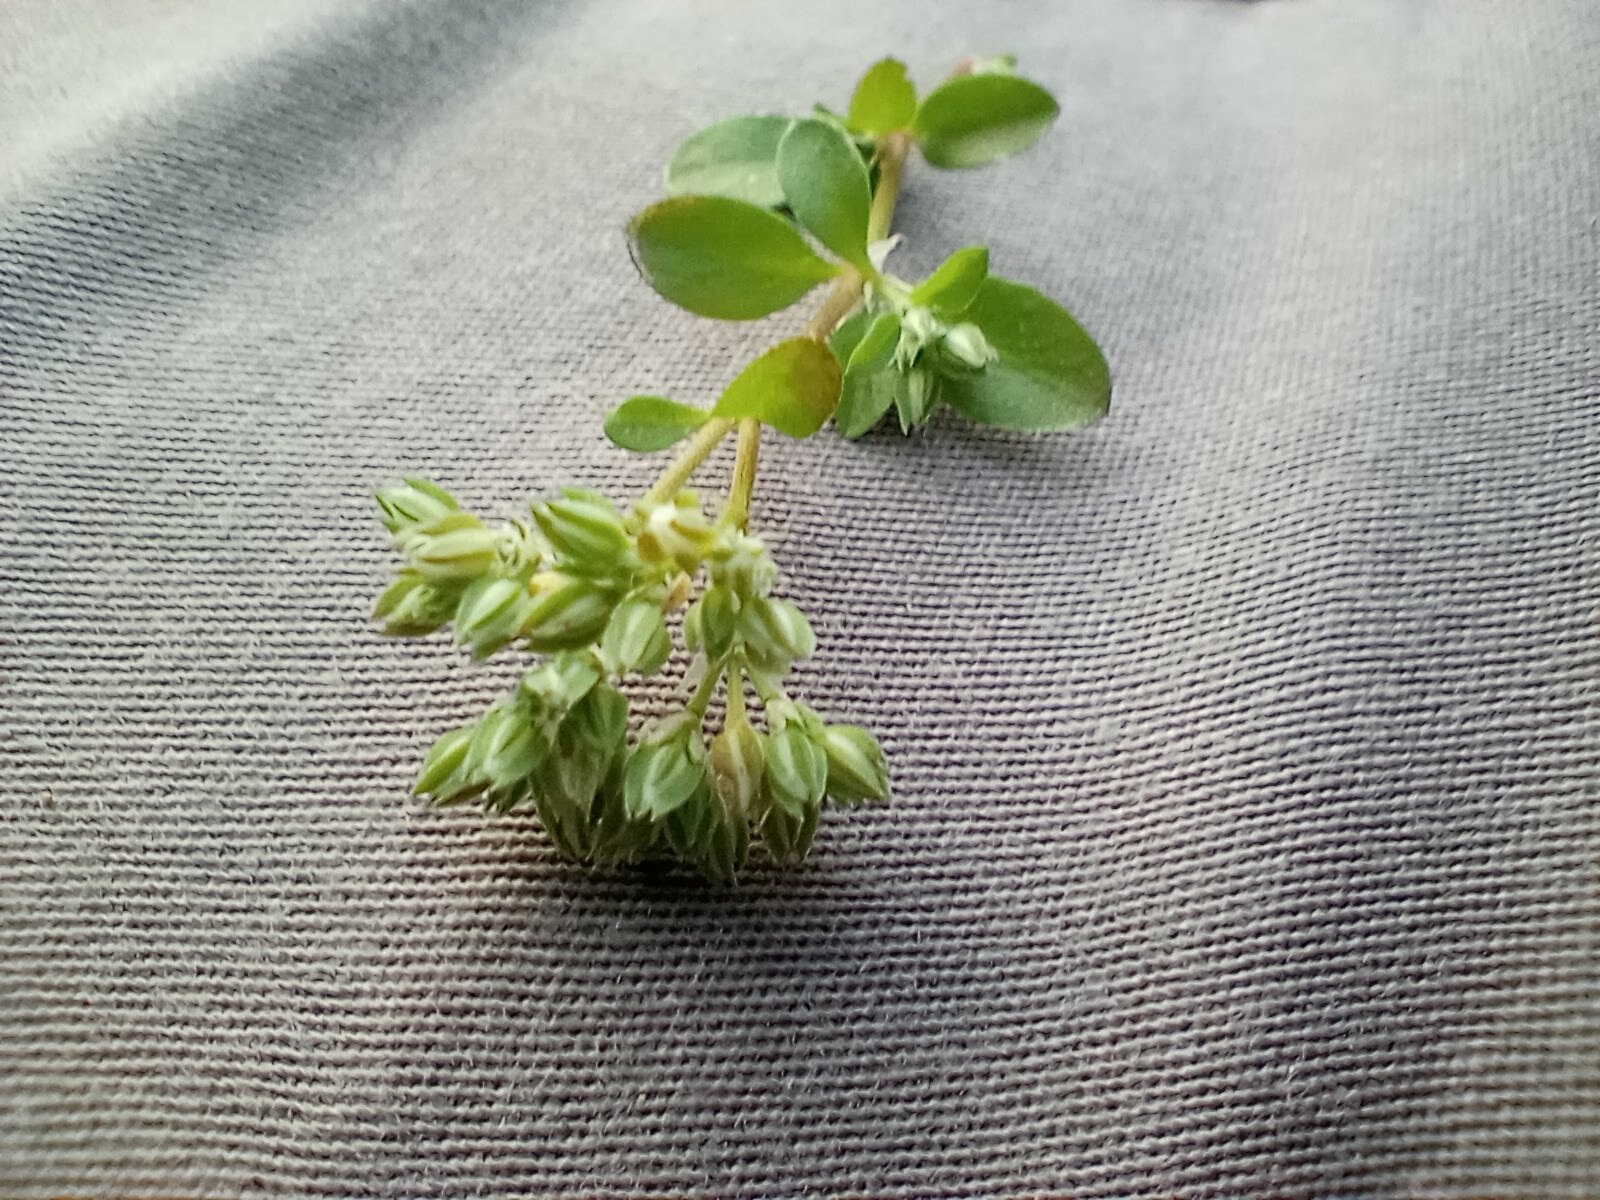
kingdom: Plantae
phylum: Tracheophyta
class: Magnoliopsida
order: Caryophyllales
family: Caryophyllaceae
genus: Polycarpon
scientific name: Polycarpon tetraphyllum
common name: Four-leaved all-seed
